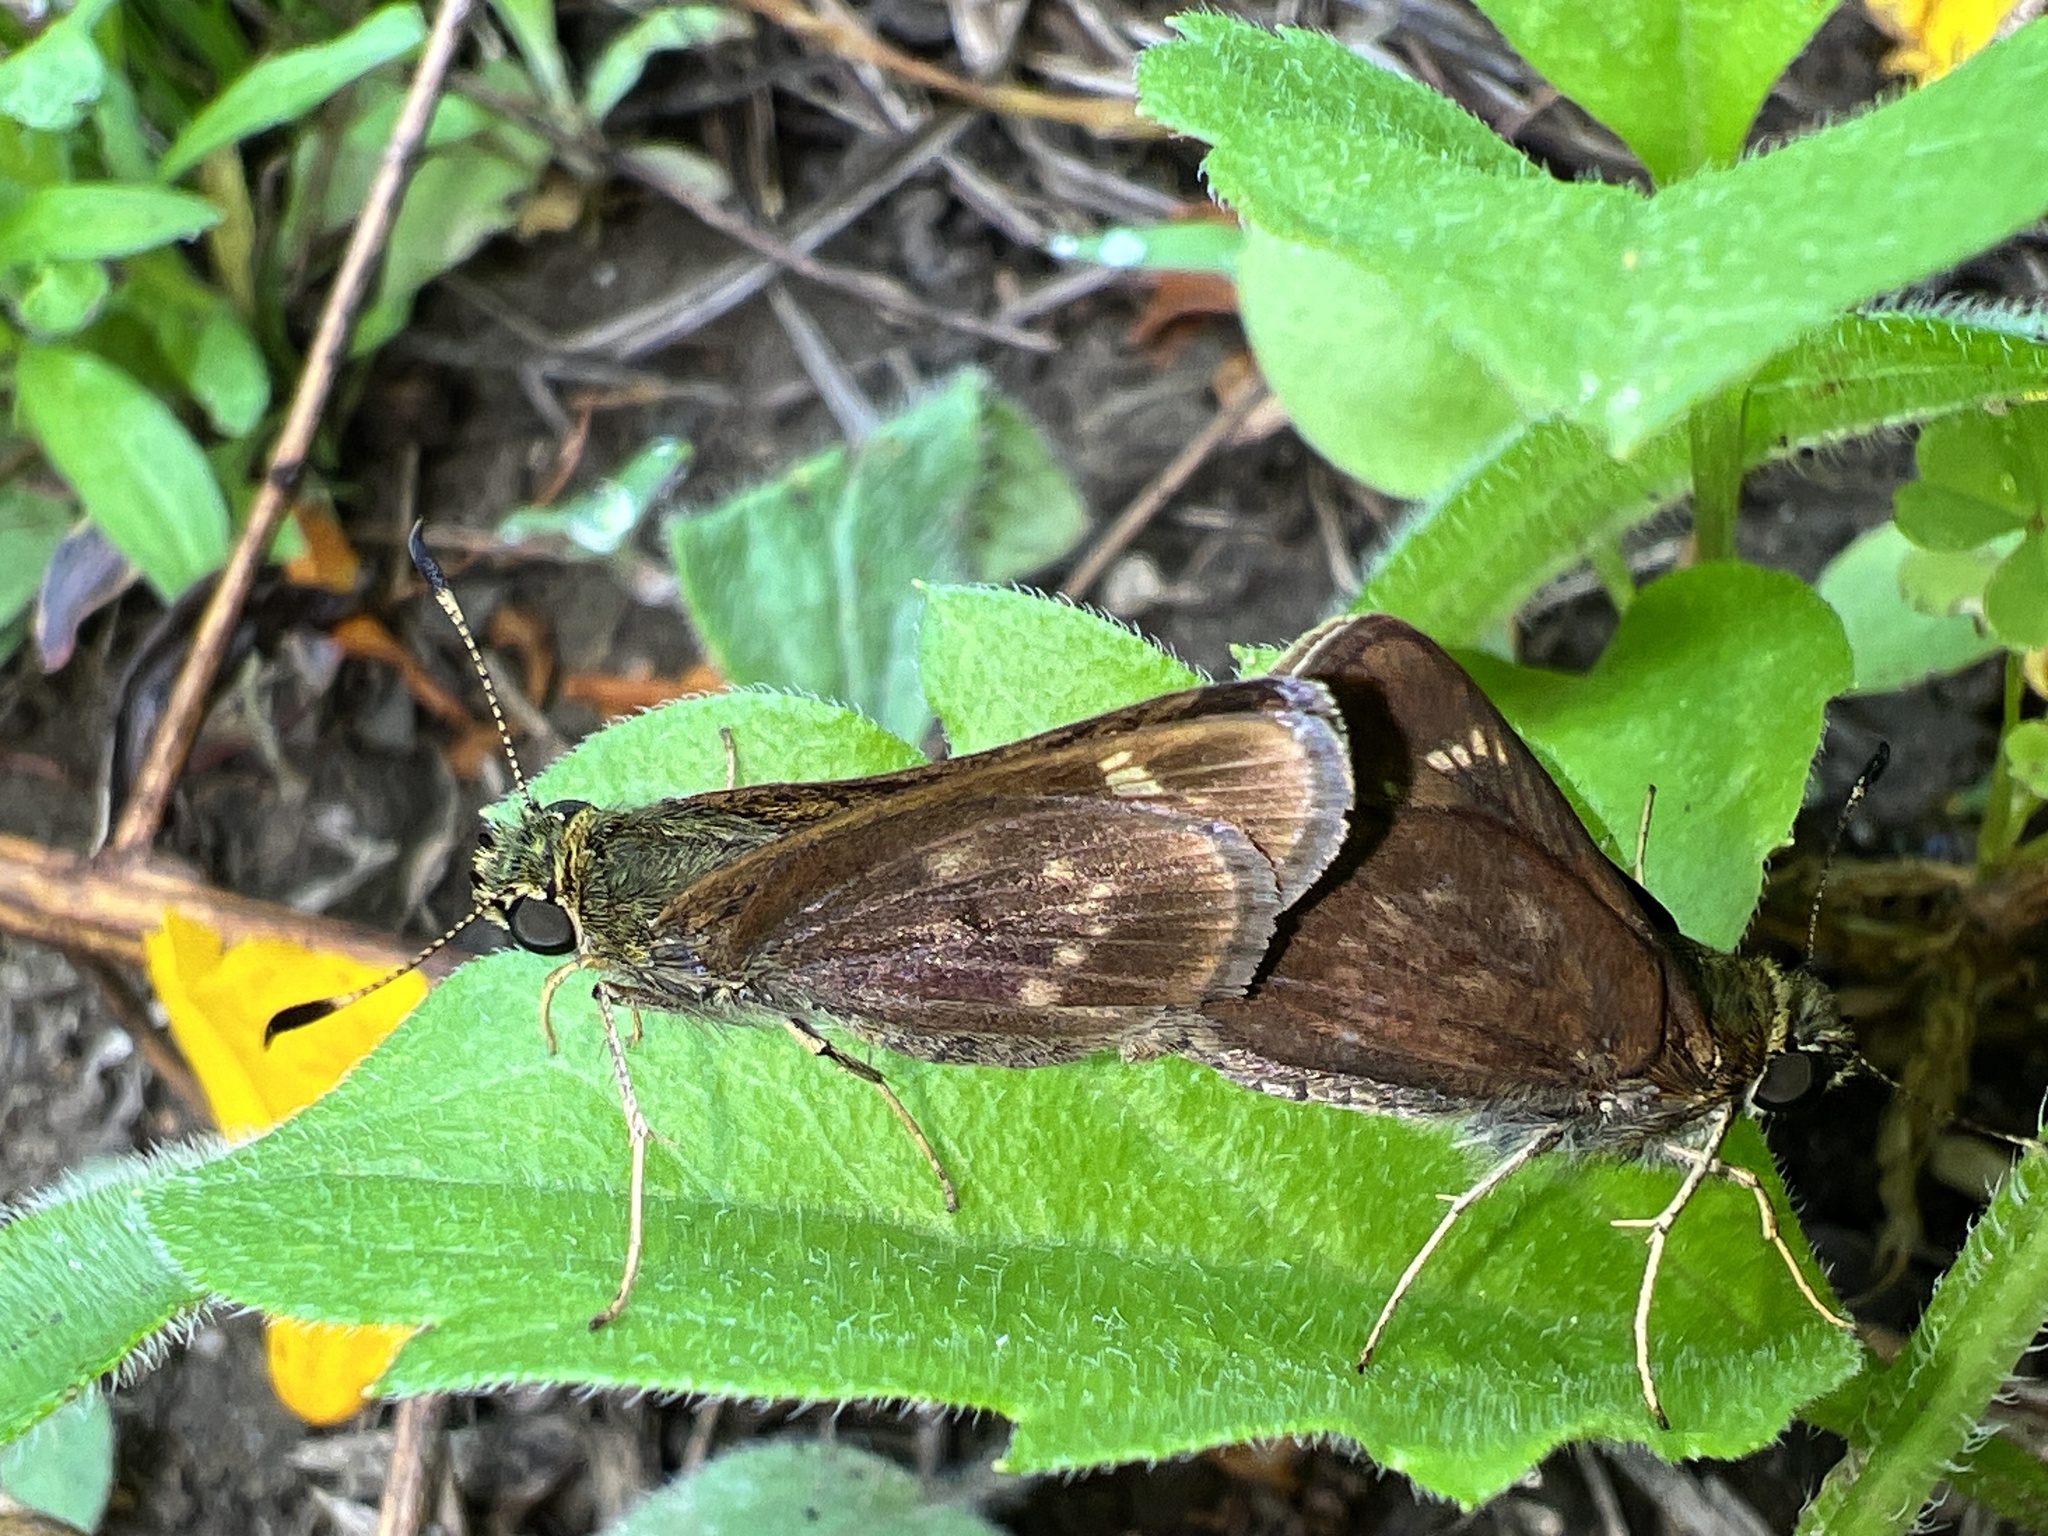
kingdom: Animalia
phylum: Arthropoda
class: Insecta
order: Lepidoptera
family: Hesperiidae
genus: Vernia
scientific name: Vernia verna
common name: Little glassywing
